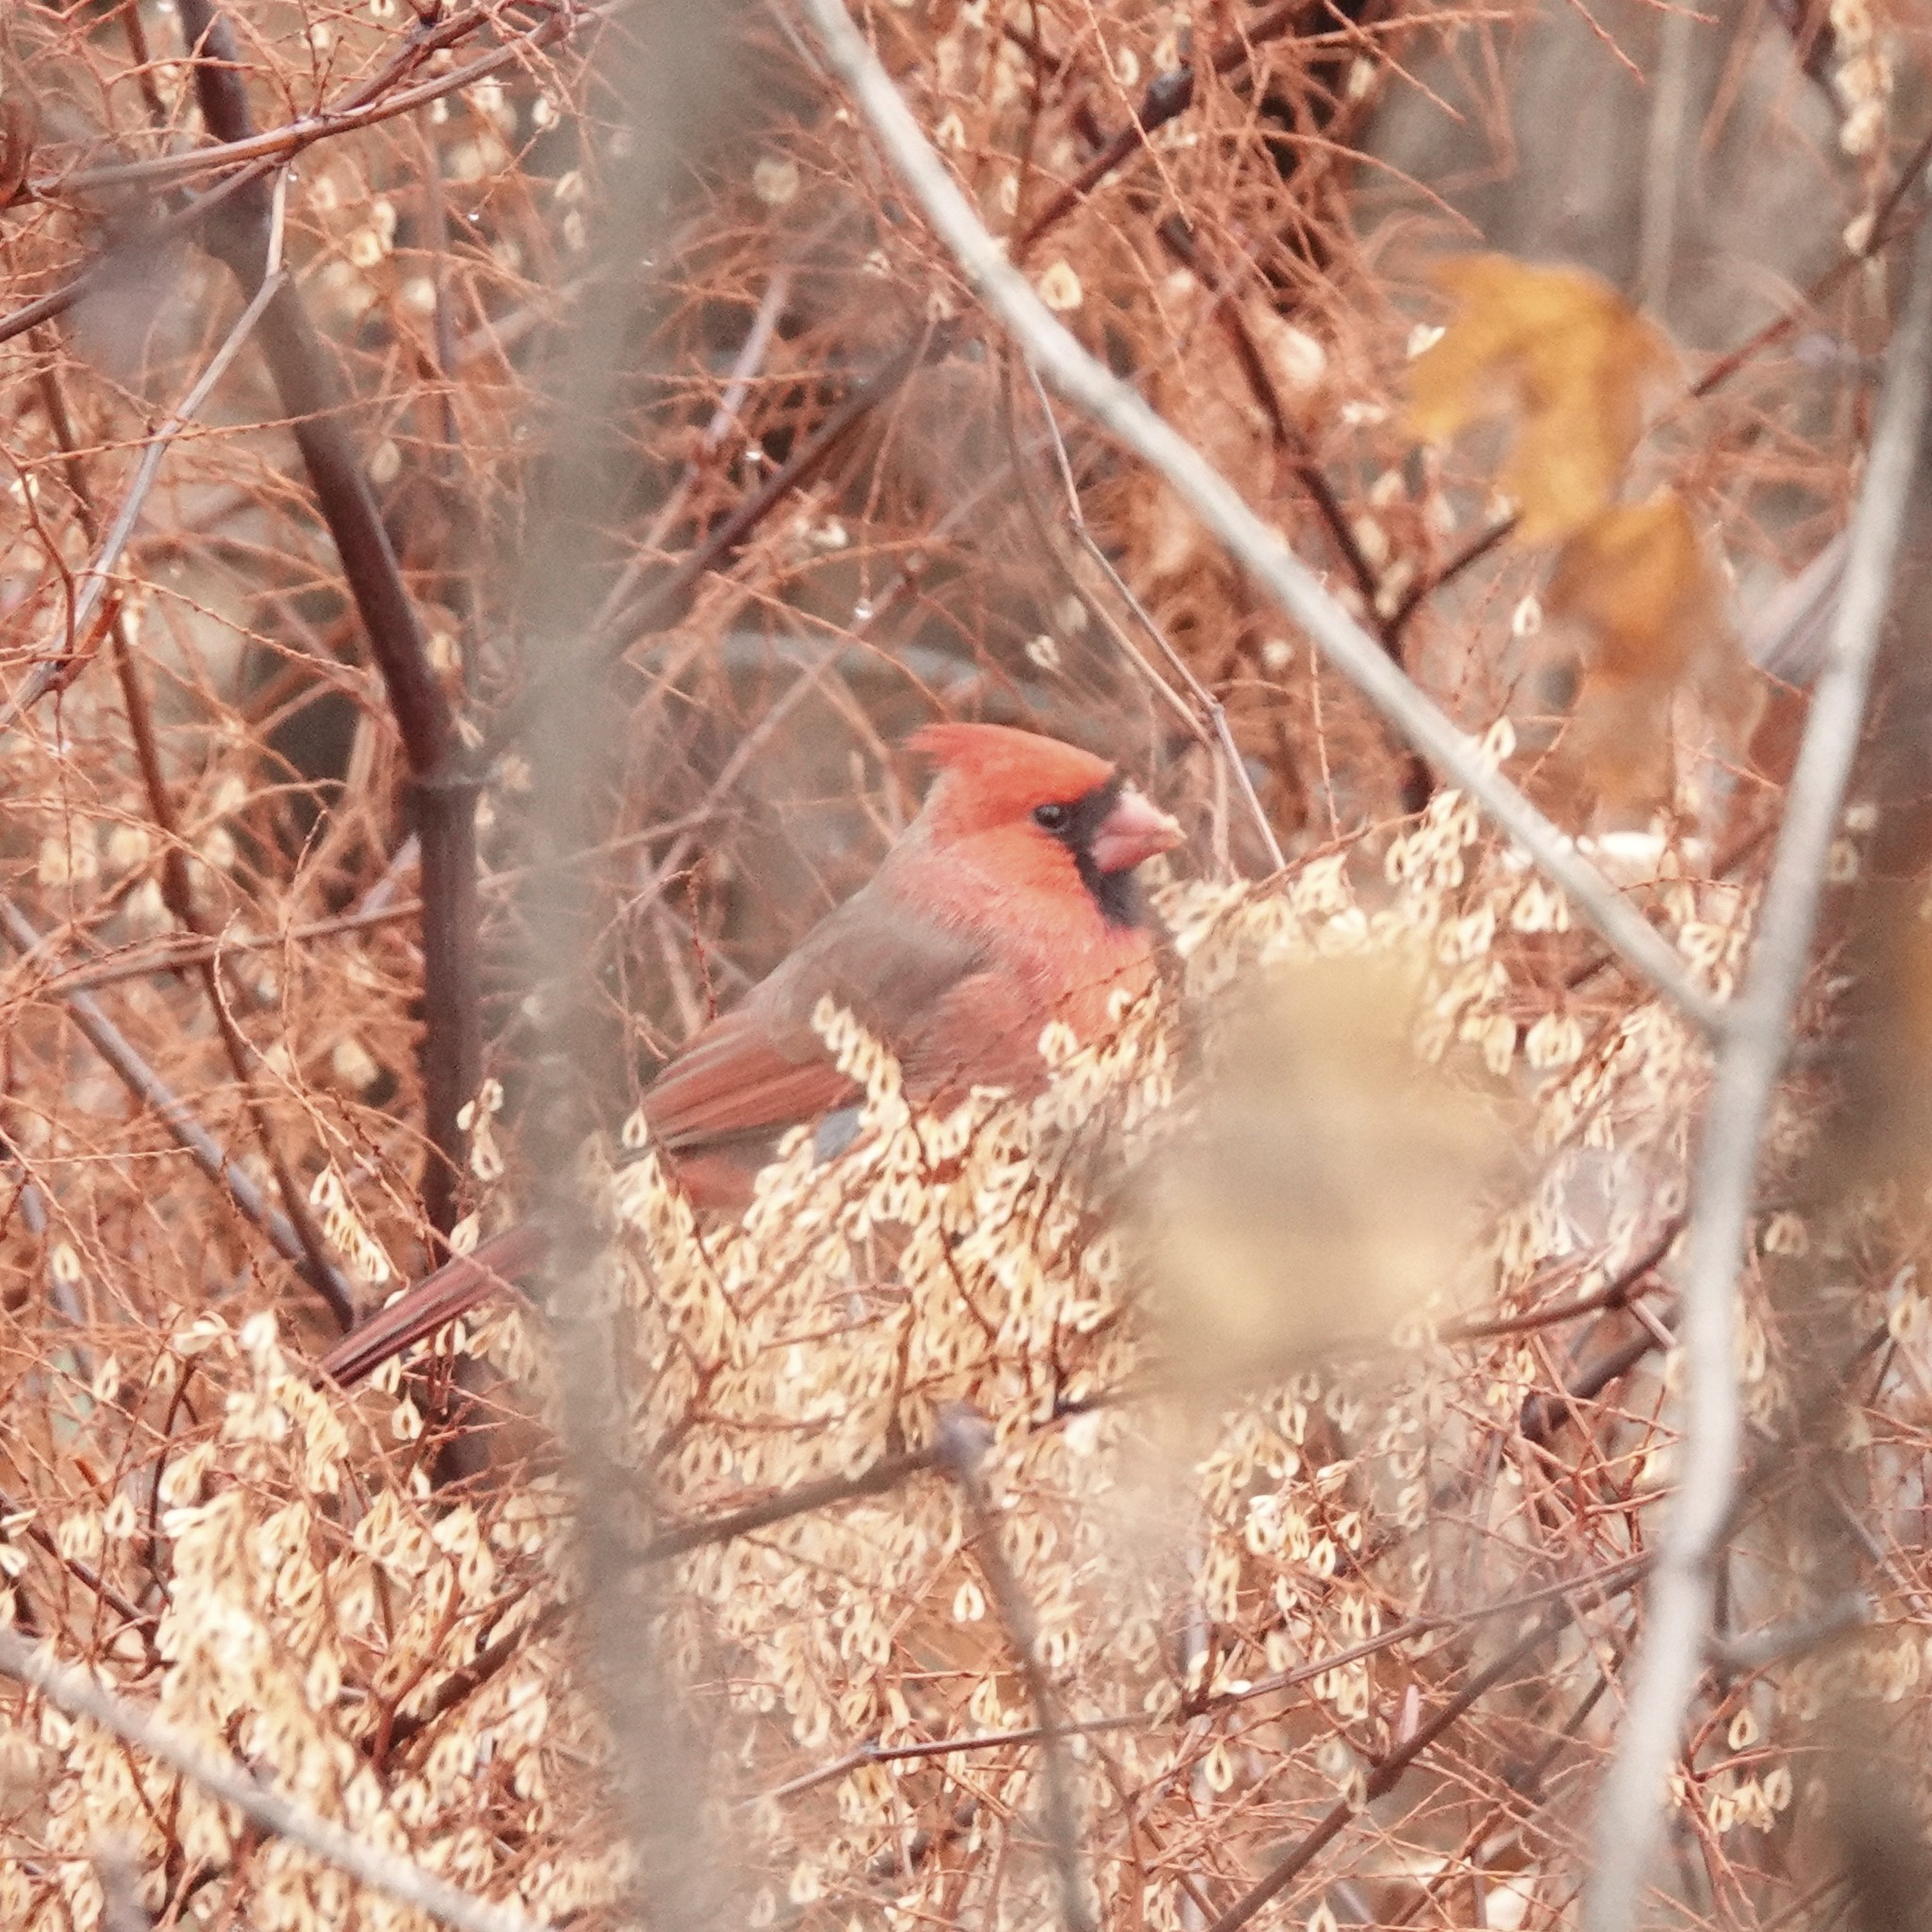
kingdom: Animalia
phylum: Chordata
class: Aves
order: Passeriformes
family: Cardinalidae
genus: Cardinalis
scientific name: Cardinalis cardinalis
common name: Northern cardinal
